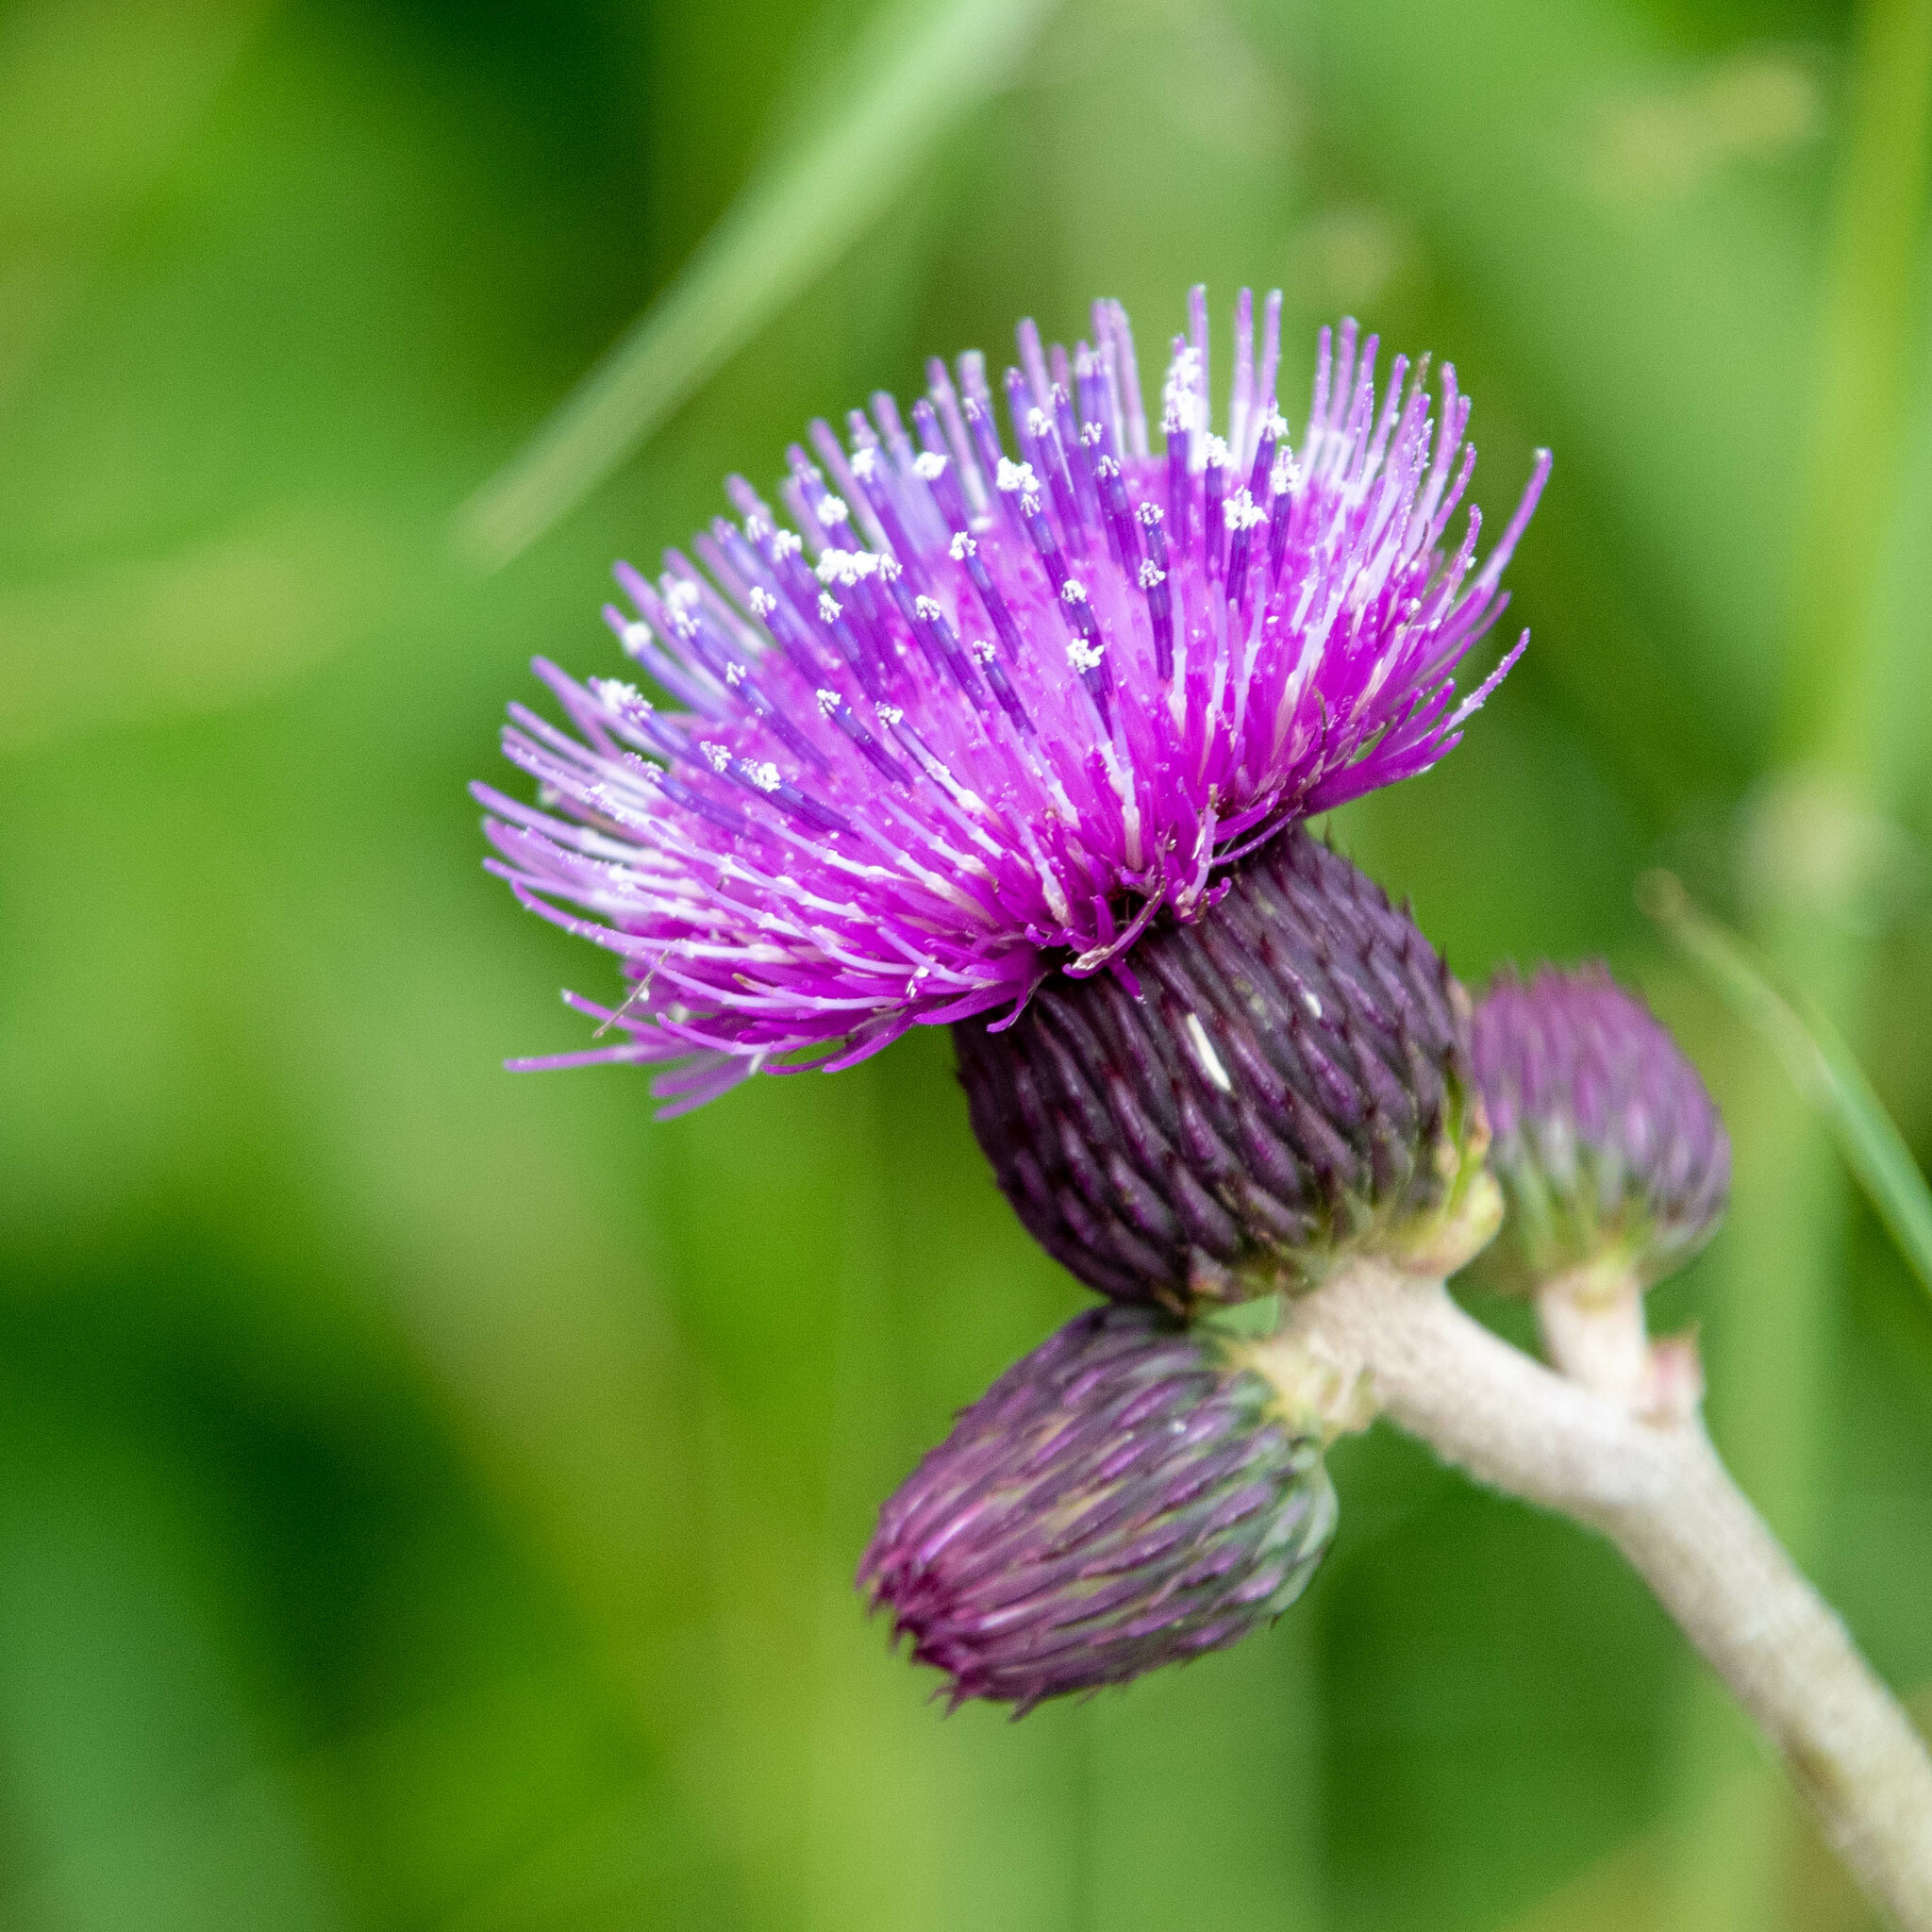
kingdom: Plantae
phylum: Tracheophyta
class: Magnoliopsida
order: Asterales
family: Asteraceae
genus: Cirsium
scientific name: Cirsium rivulare
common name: Brook thistle
